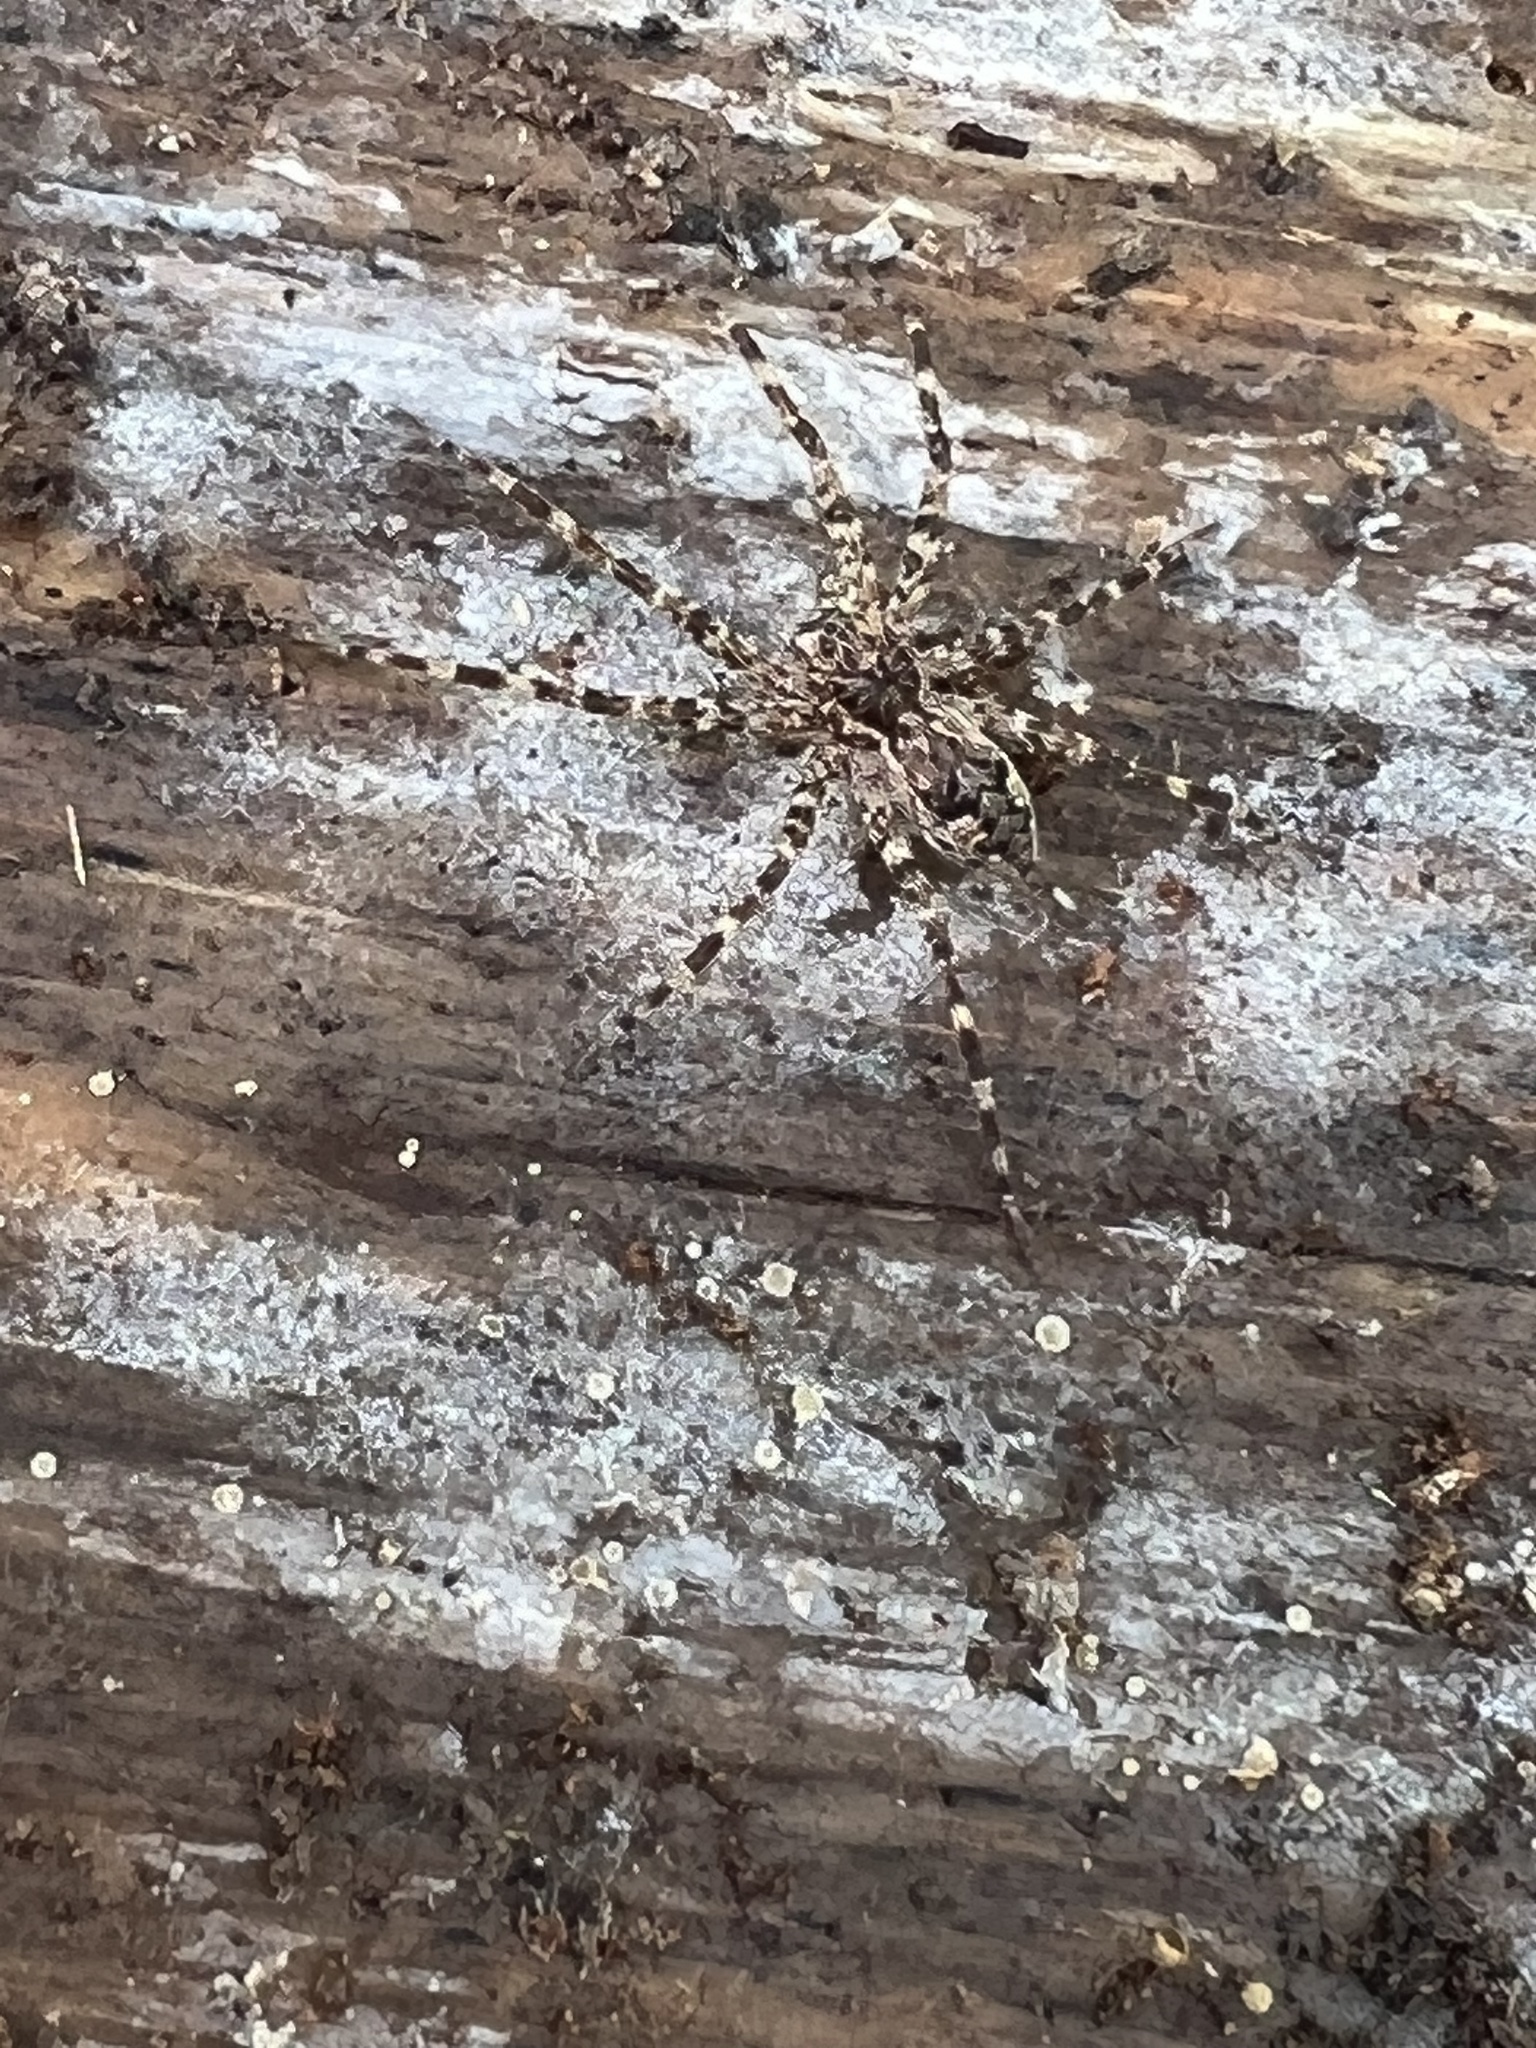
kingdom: Animalia
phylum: Arthropoda
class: Arachnida
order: Araneae
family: Pisauridae
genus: Dolomedes
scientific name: Dolomedes tenebrosus
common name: Dark fishing spider
